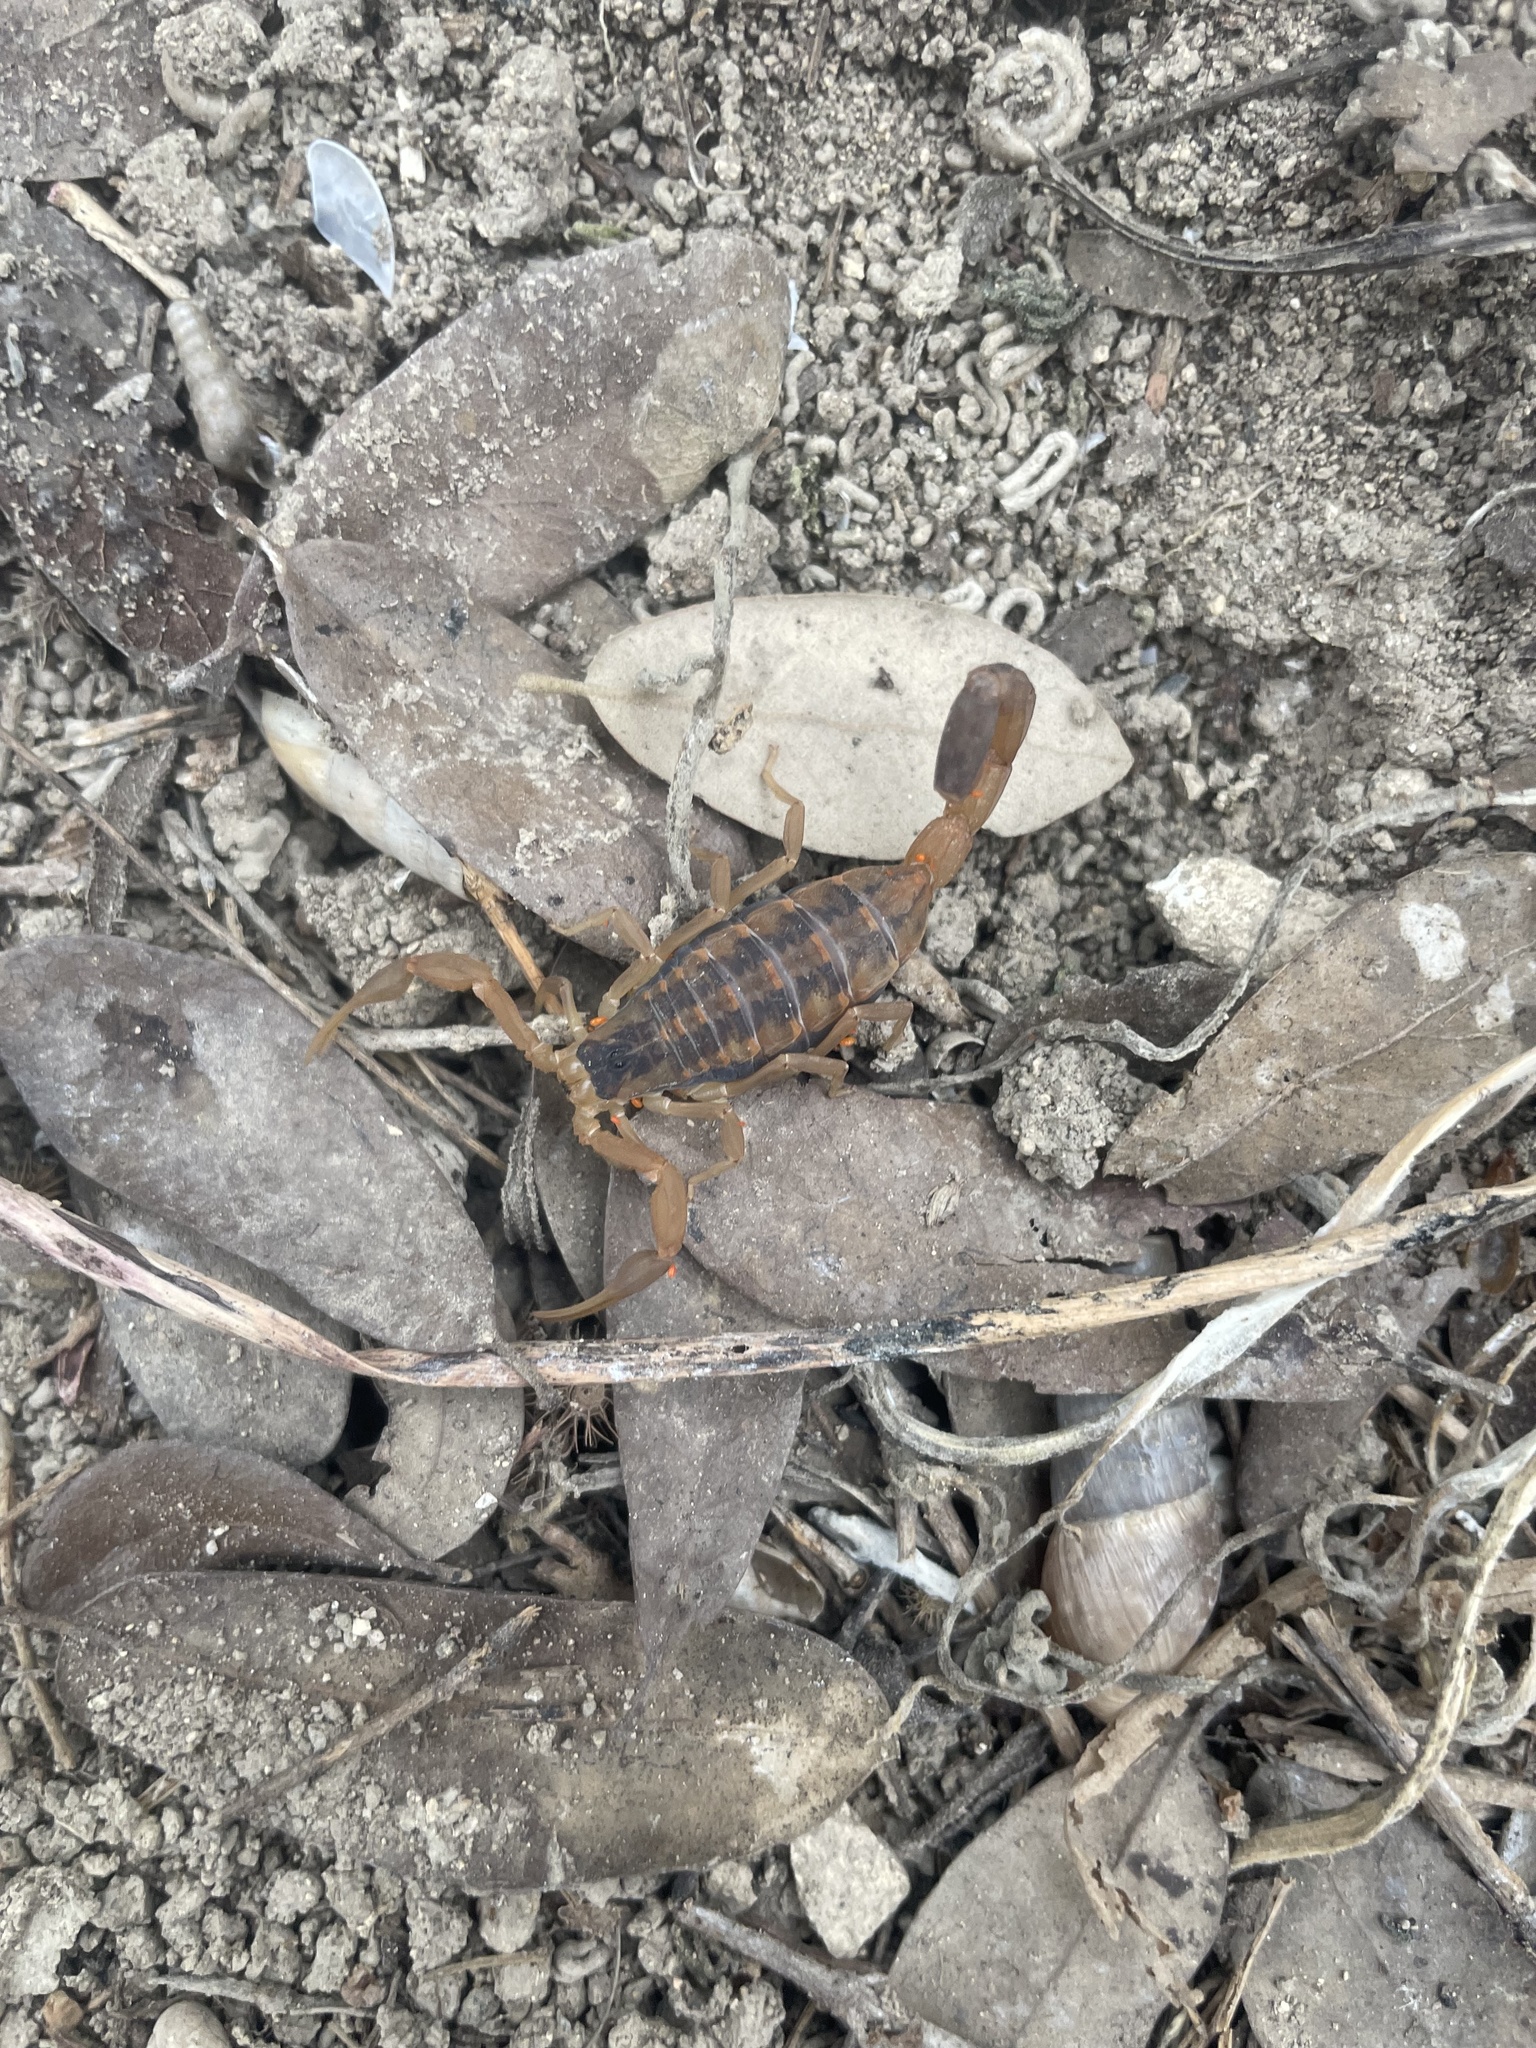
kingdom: Animalia
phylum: Arthropoda
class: Arachnida
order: Scorpiones
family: Buthidae
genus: Centruroides
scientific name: Centruroides vittatus
